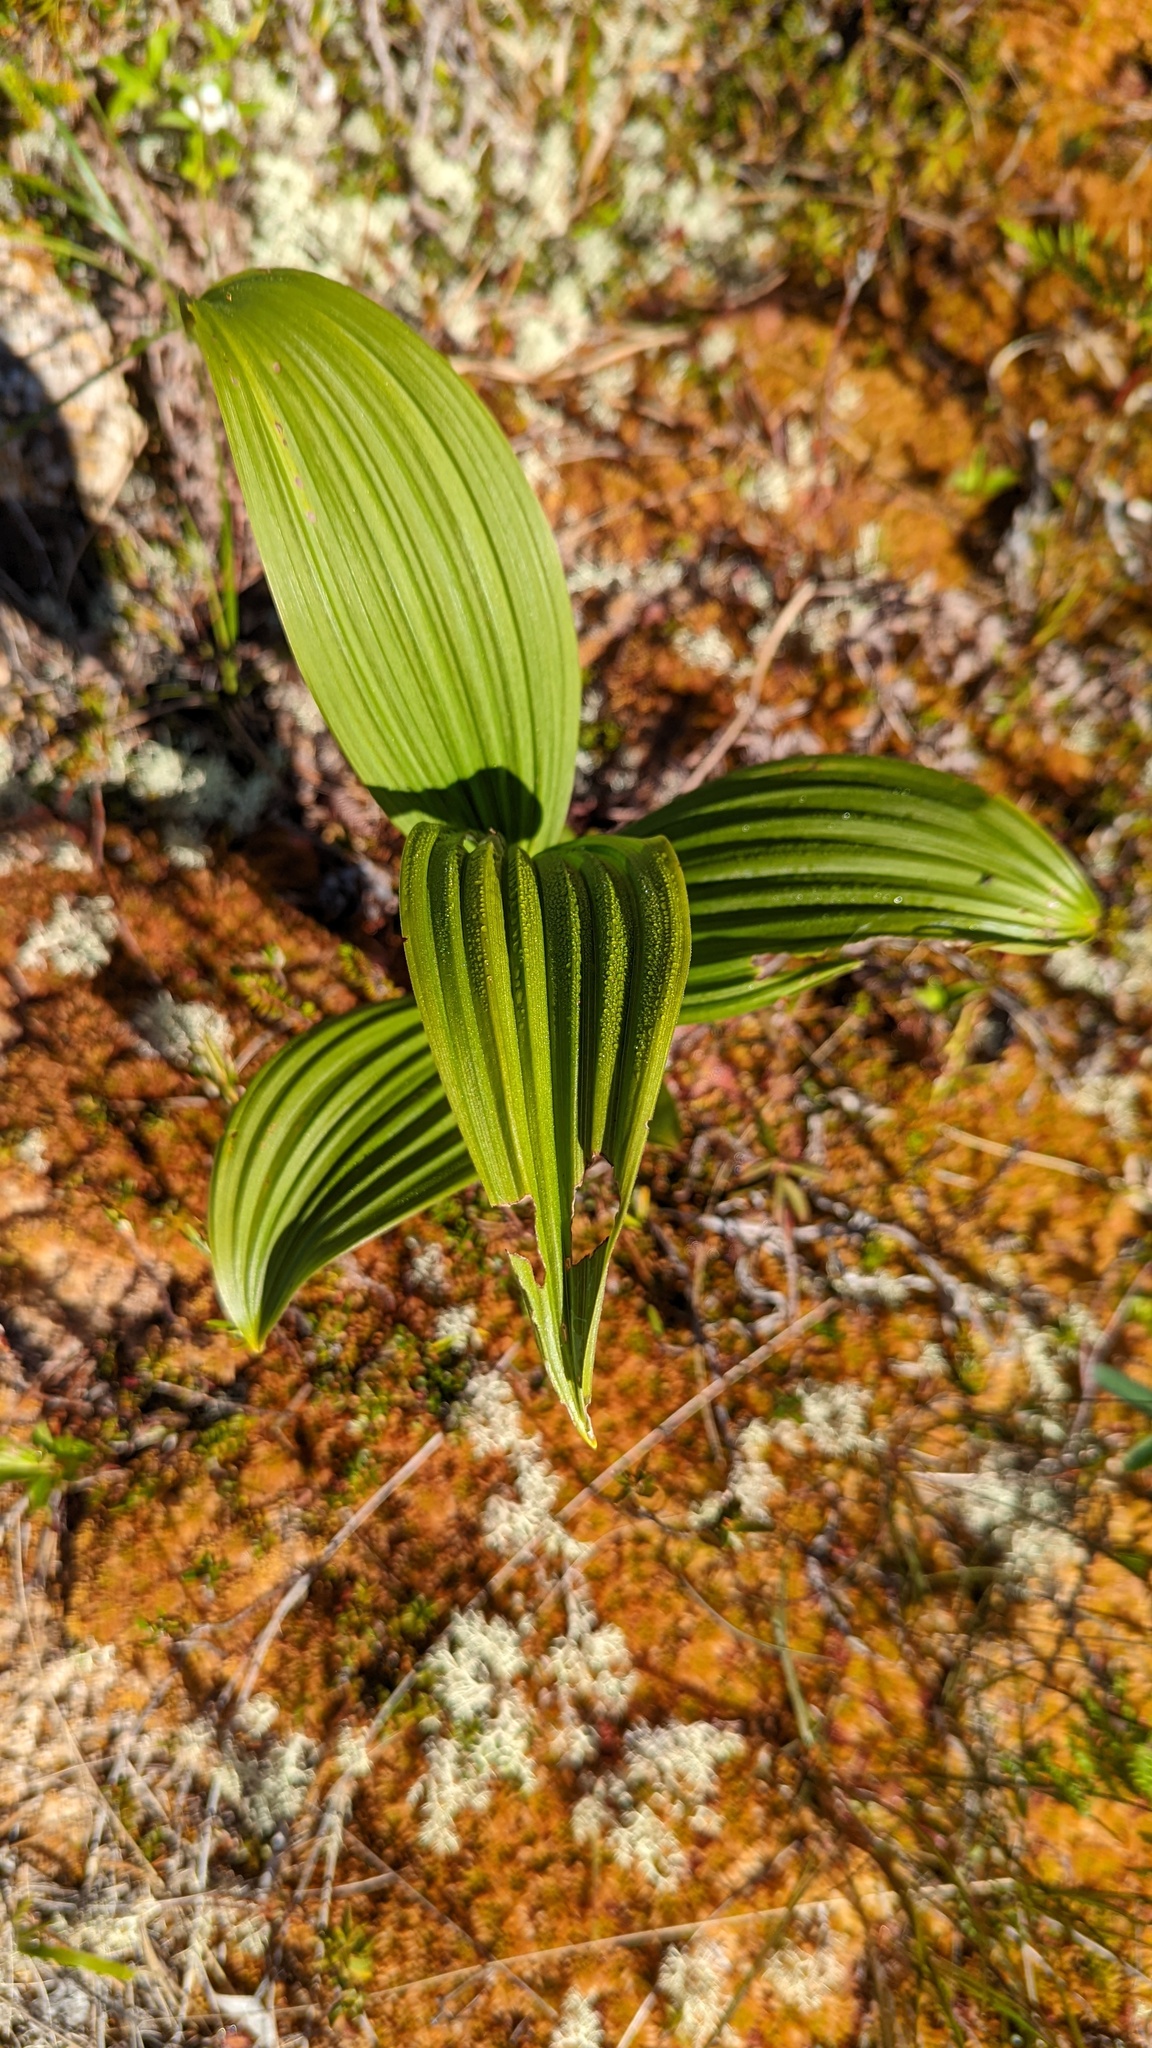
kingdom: Plantae
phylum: Tracheophyta
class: Liliopsida
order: Liliales
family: Melanthiaceae
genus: Veratrum
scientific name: Veratrum viride
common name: American false hellebore
